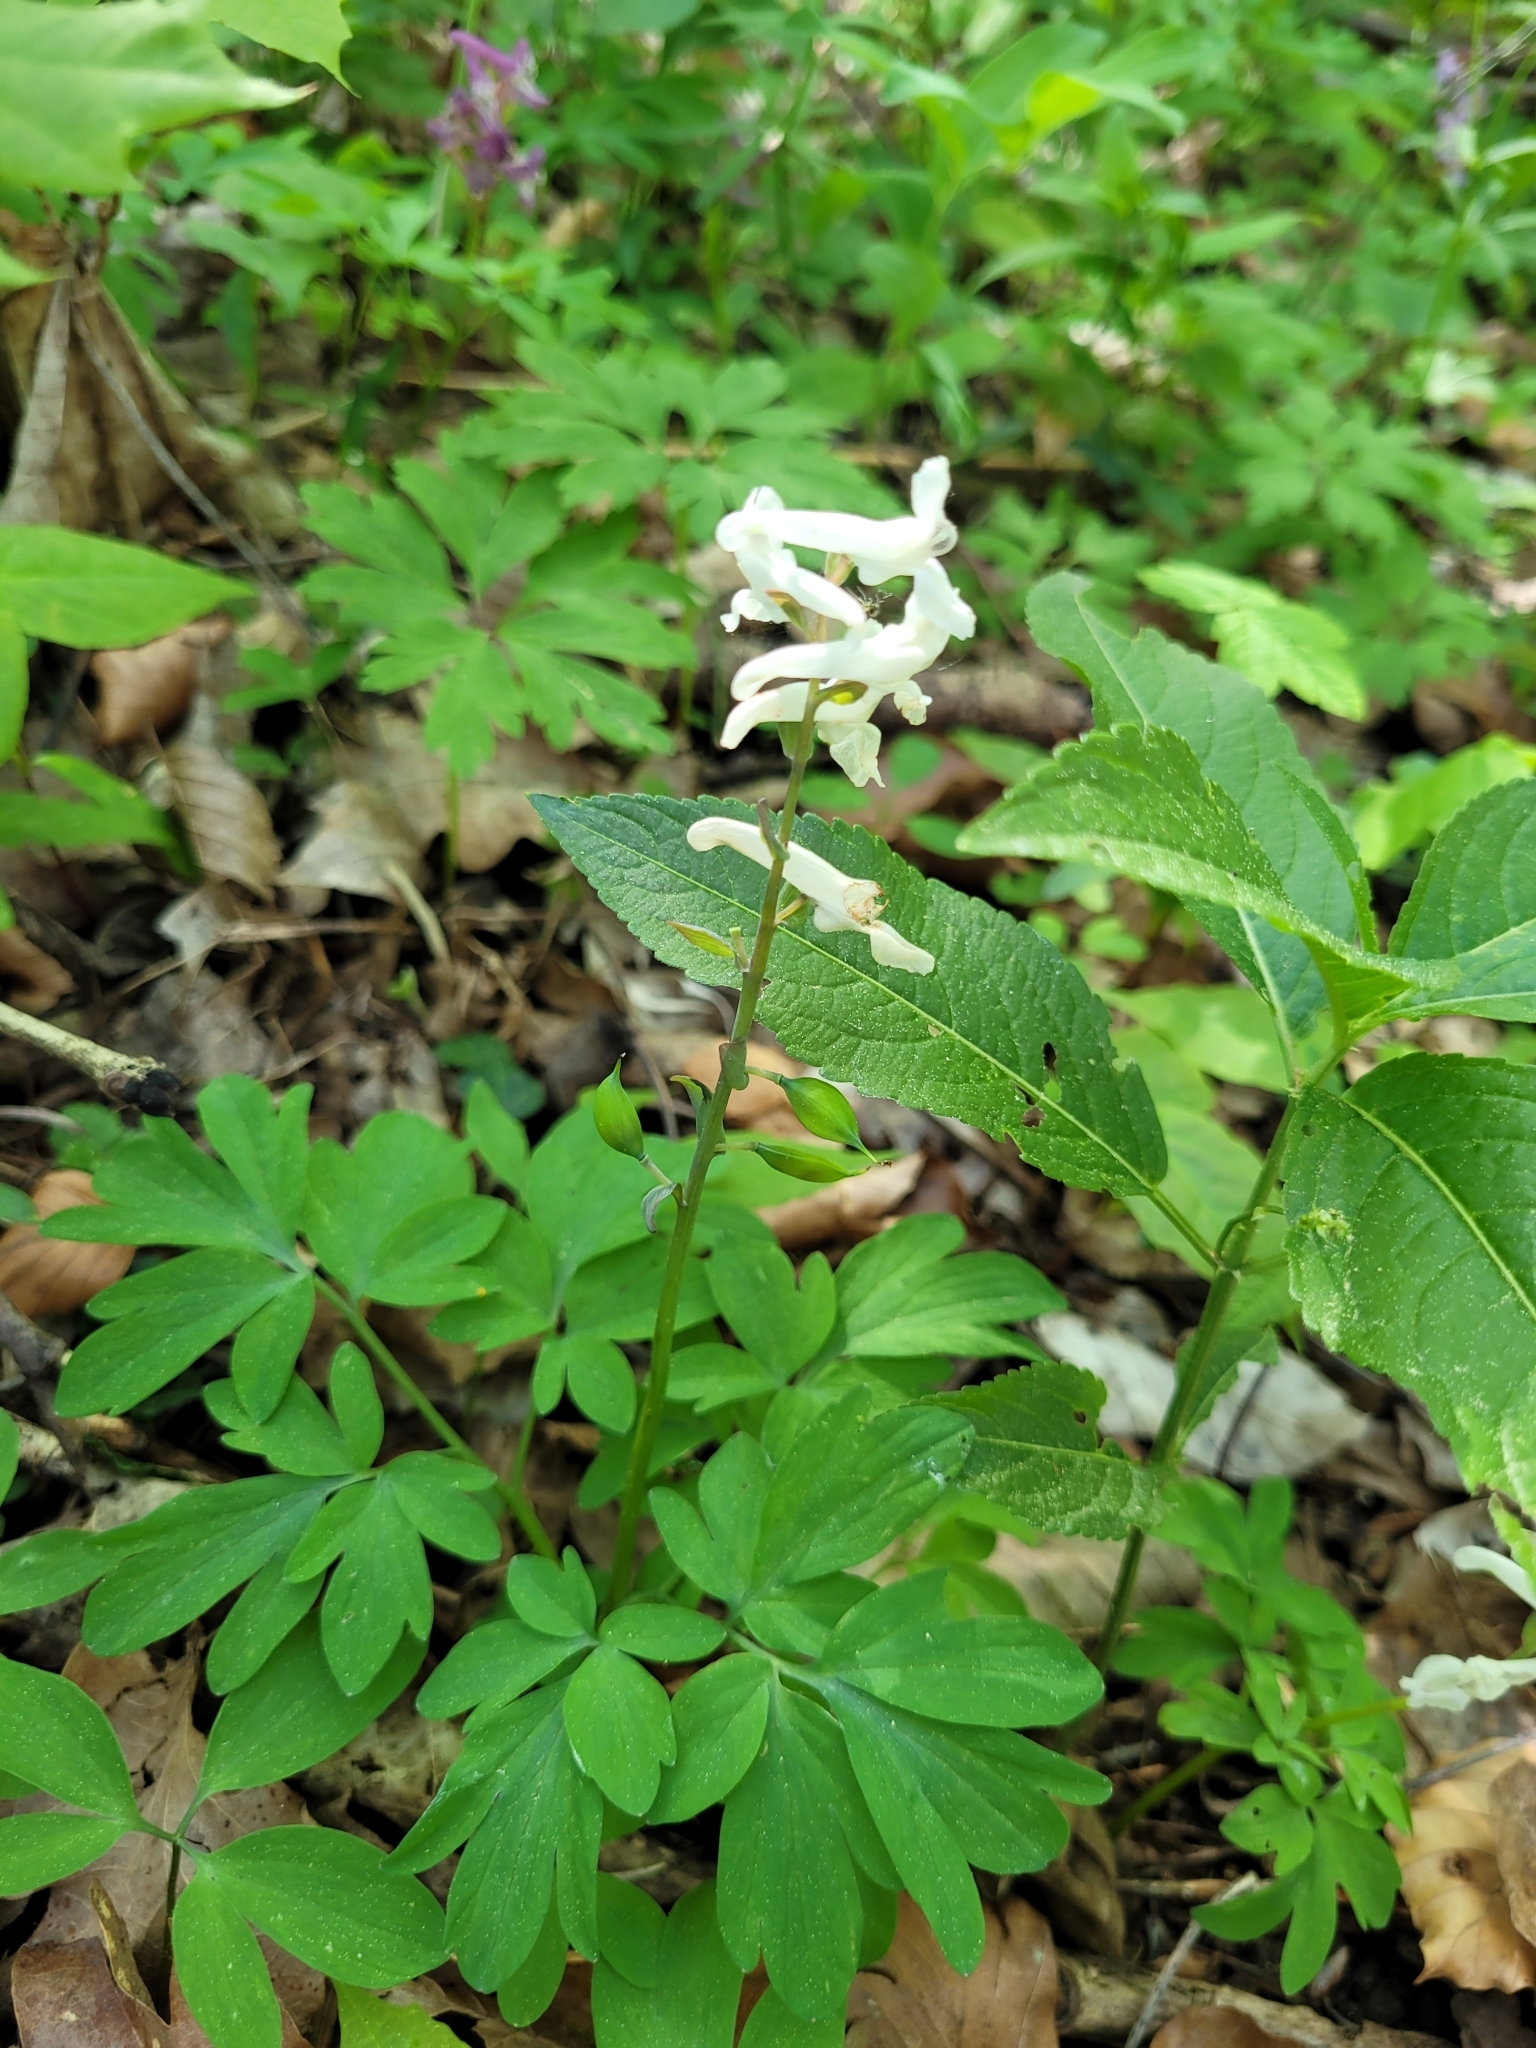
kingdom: Plantae
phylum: Tracheophyta
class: Magnoliopsida
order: Ranunculales
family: Papaveraceae
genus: Corydalis
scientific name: Corydalis cava
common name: Hollowroot
